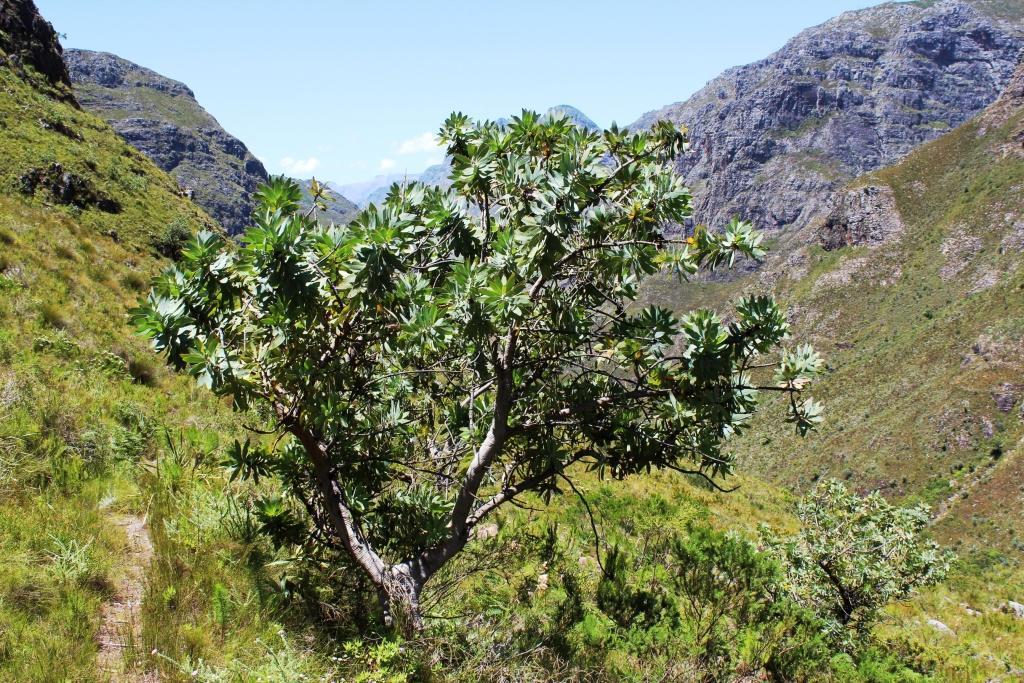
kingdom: Plantae
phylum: Tracheophyta
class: Magnoliopsida
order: Proteales
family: Proteaceae
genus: Protea
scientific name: Protea nitida
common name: Tree protea
